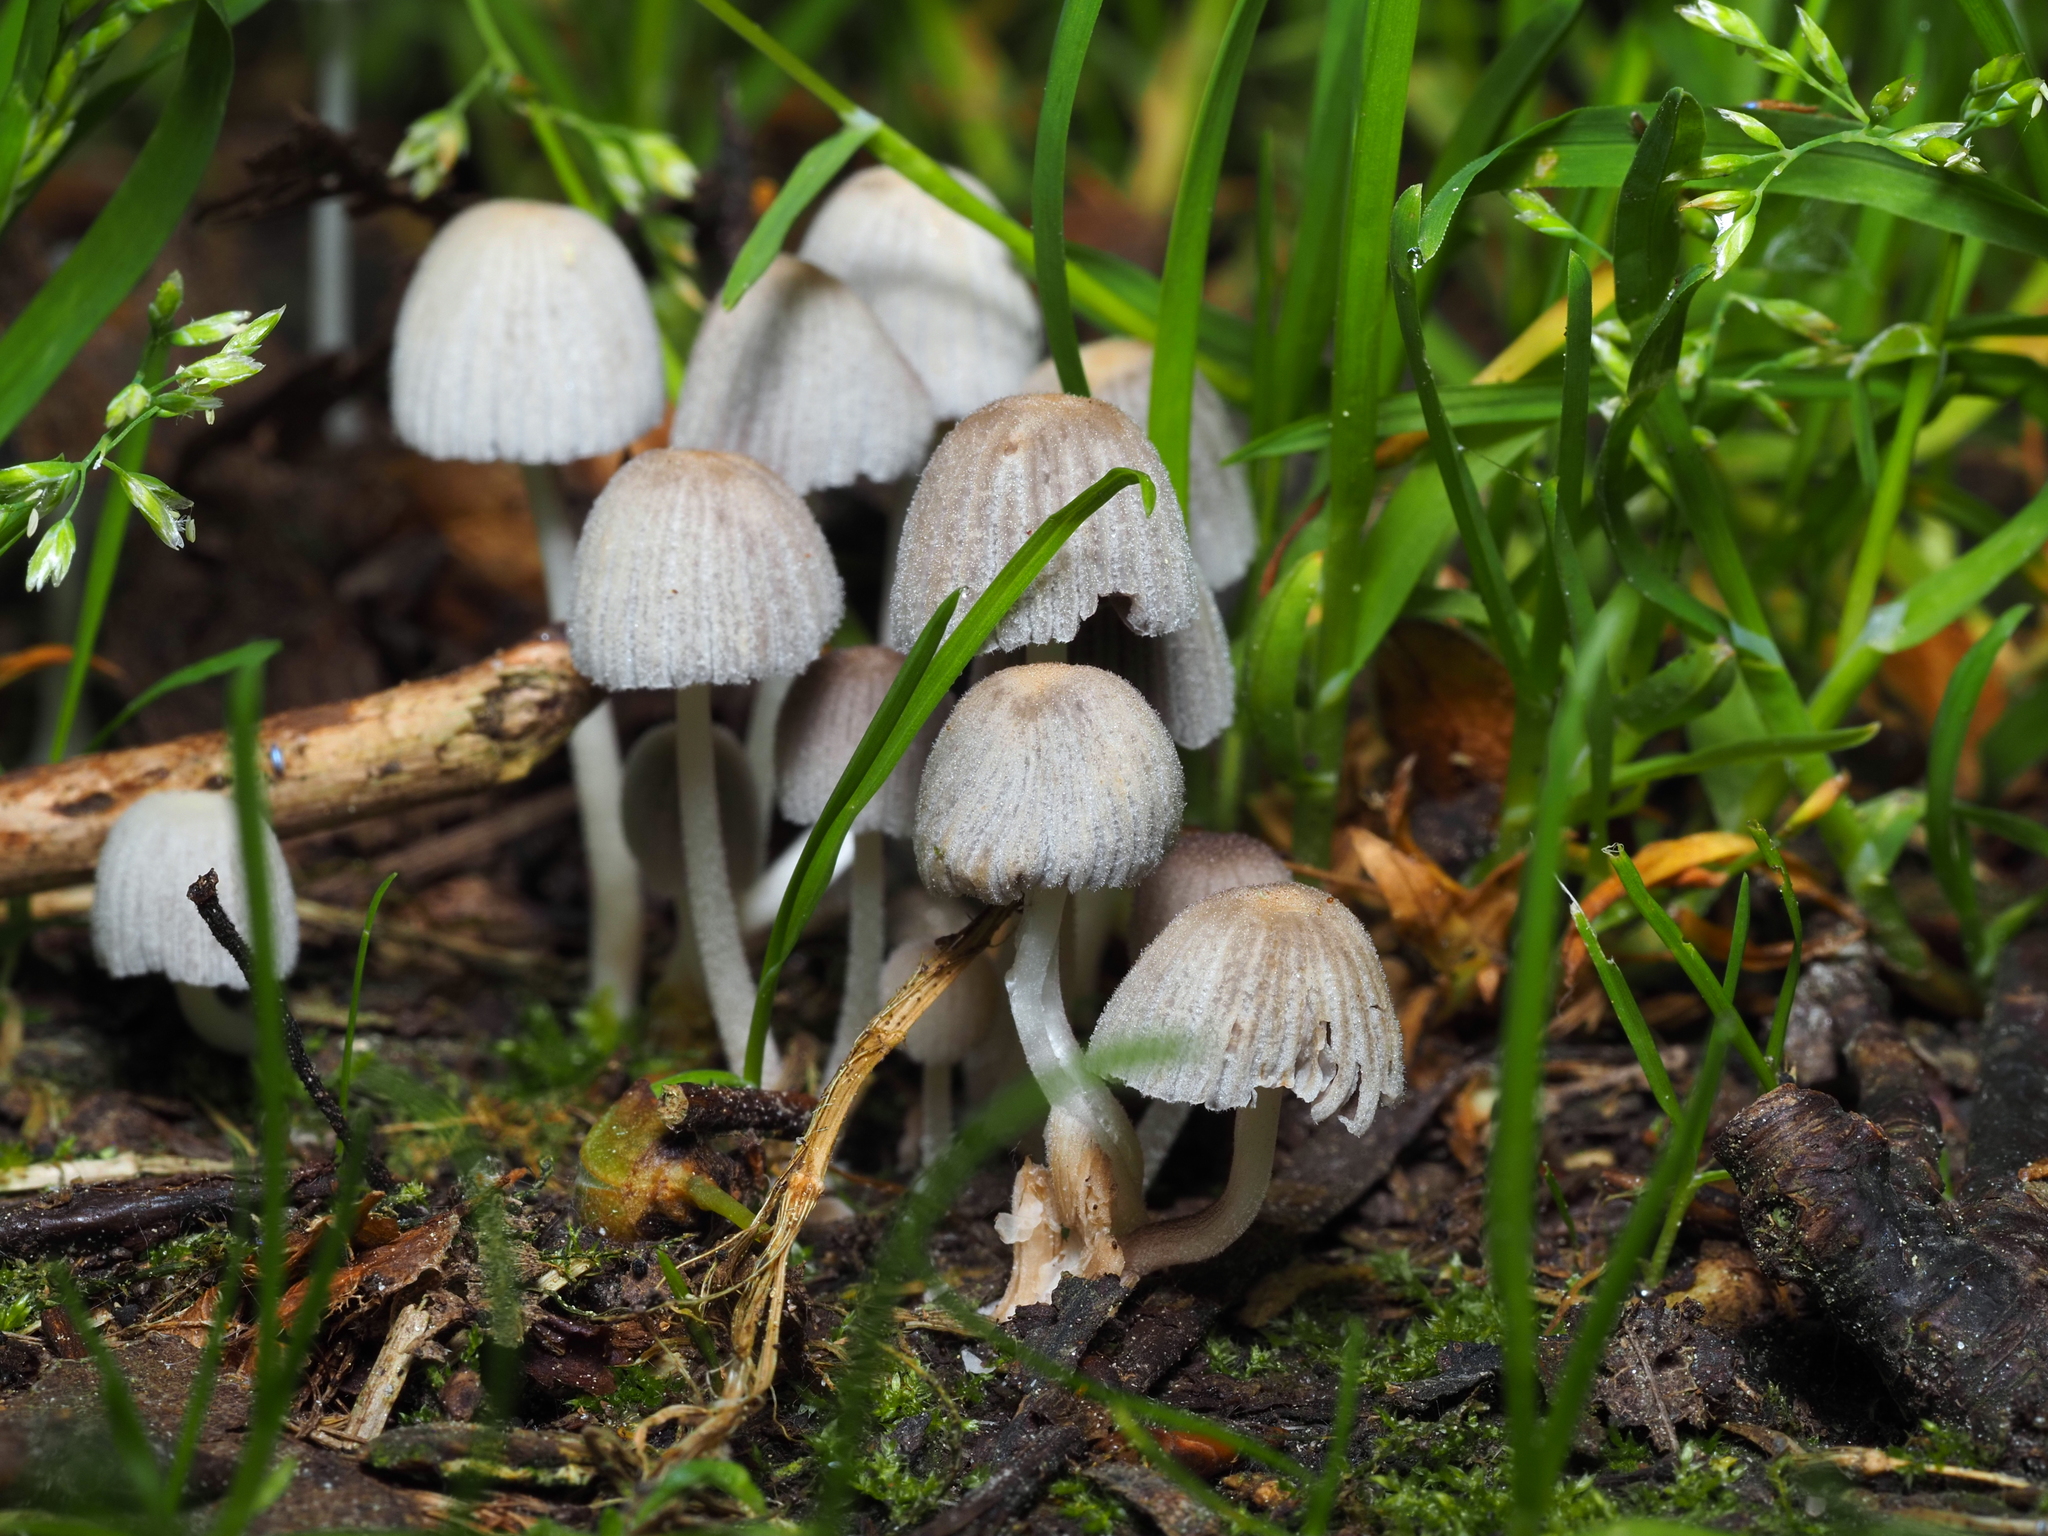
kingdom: Fungi
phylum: Basidiomycota
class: Agaricomycetes
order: Agaricales
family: Psathyrellaceae
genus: Coprinellus
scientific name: Coprinellus disseminatus
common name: Fairies' bonnets
